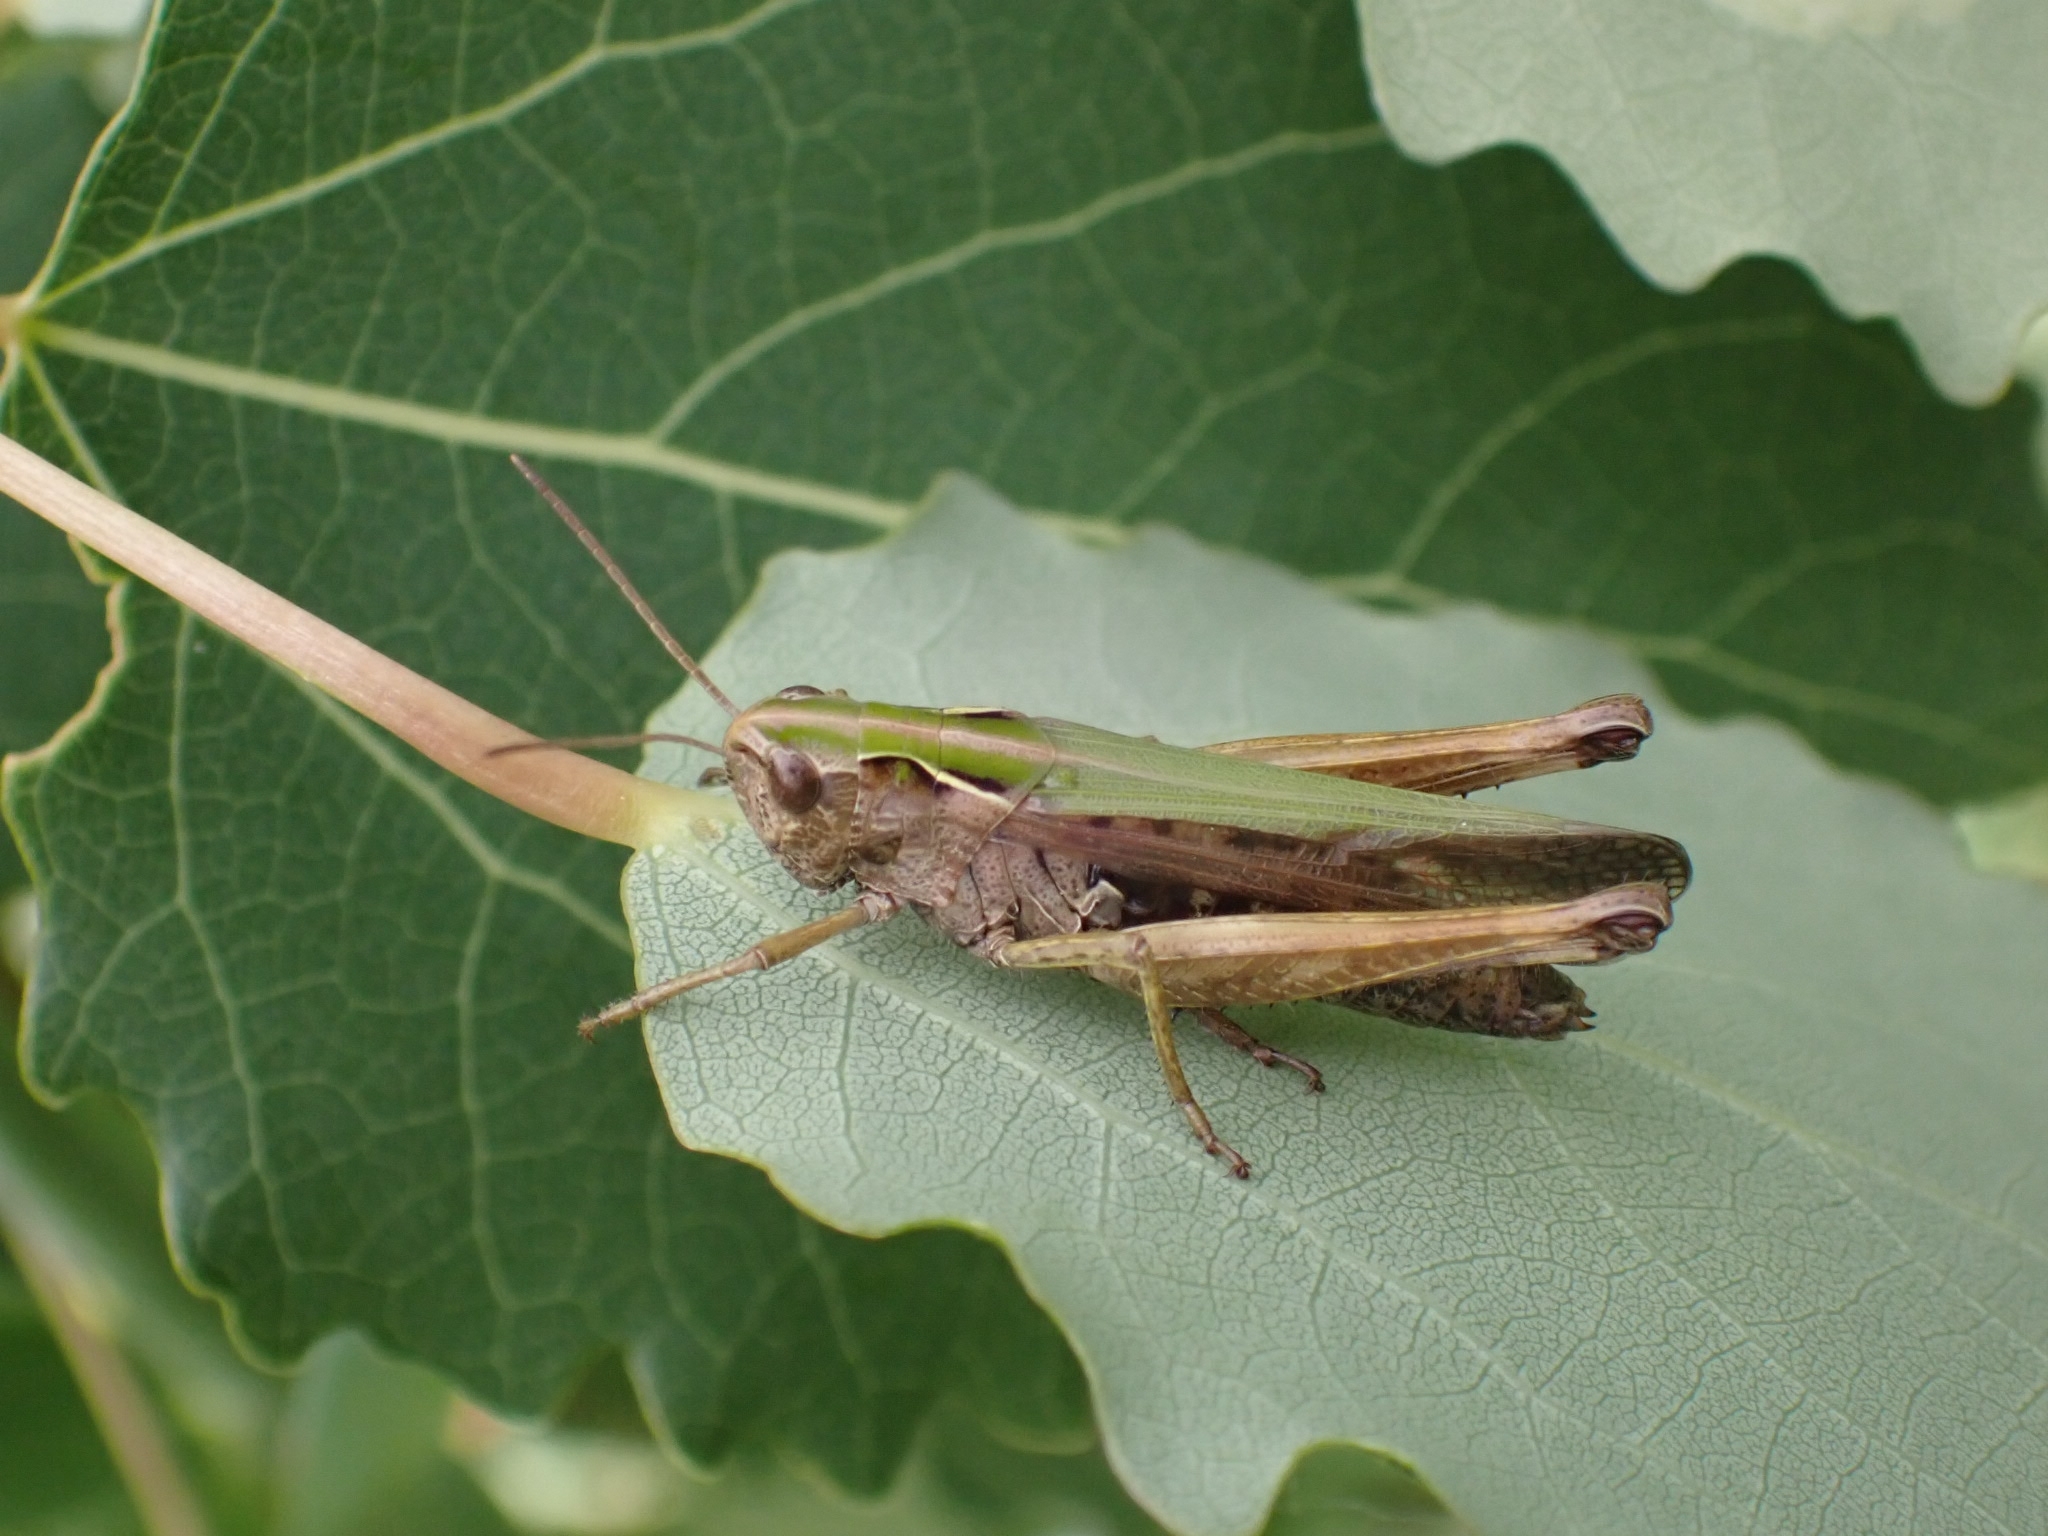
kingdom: Animalia
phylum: Arthropoda
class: Insecta
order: Orthoptera
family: Acrididae
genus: Omocestus
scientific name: Omocestus viridulus
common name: Common green grasshopper
